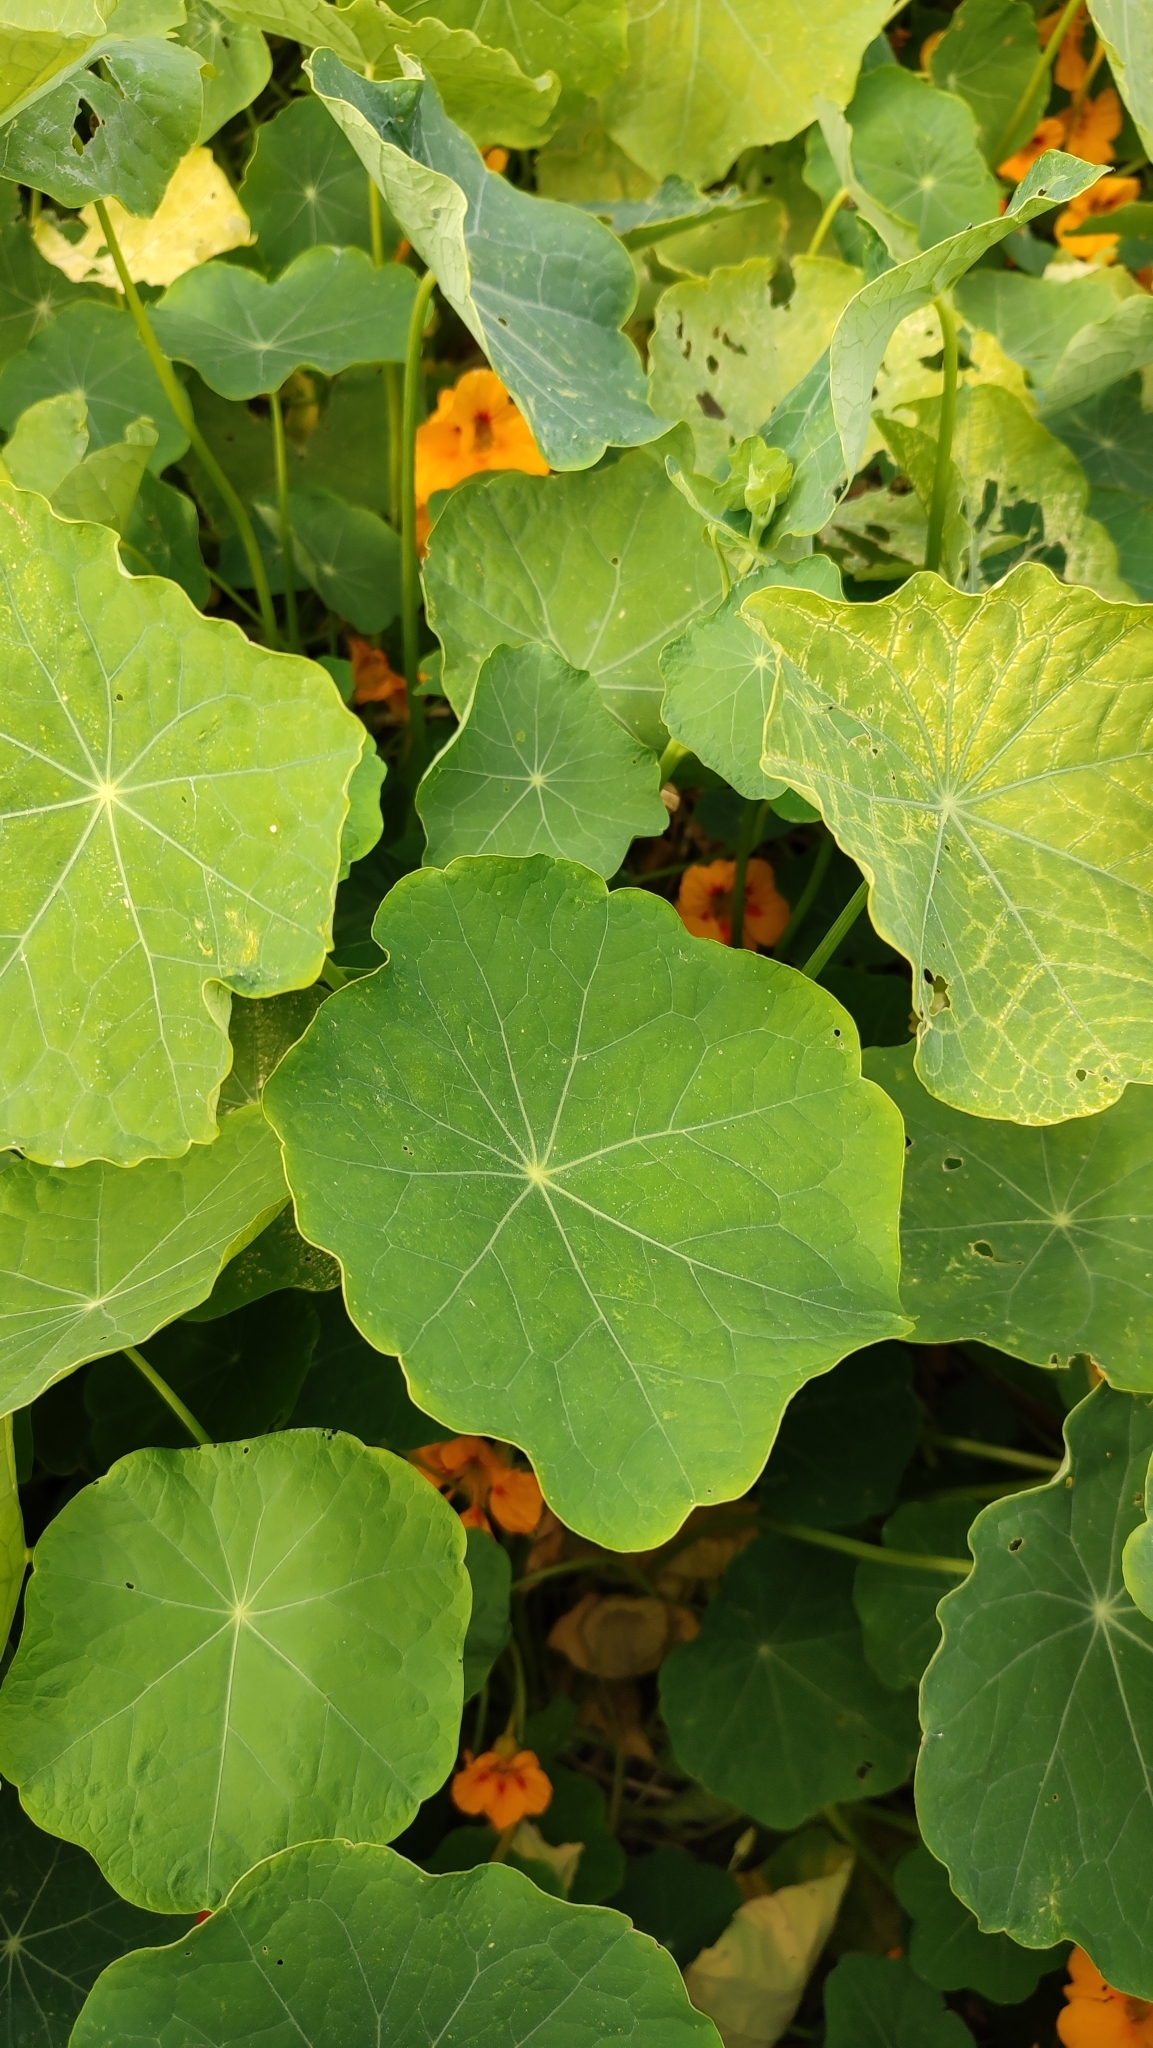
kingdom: Plantae
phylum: Tracheophyta
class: Magnoliopsida
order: Brassicales
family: Tropaeolaceae
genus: Tropaeolum
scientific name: Tropaeolum majus
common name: Nasturtium
